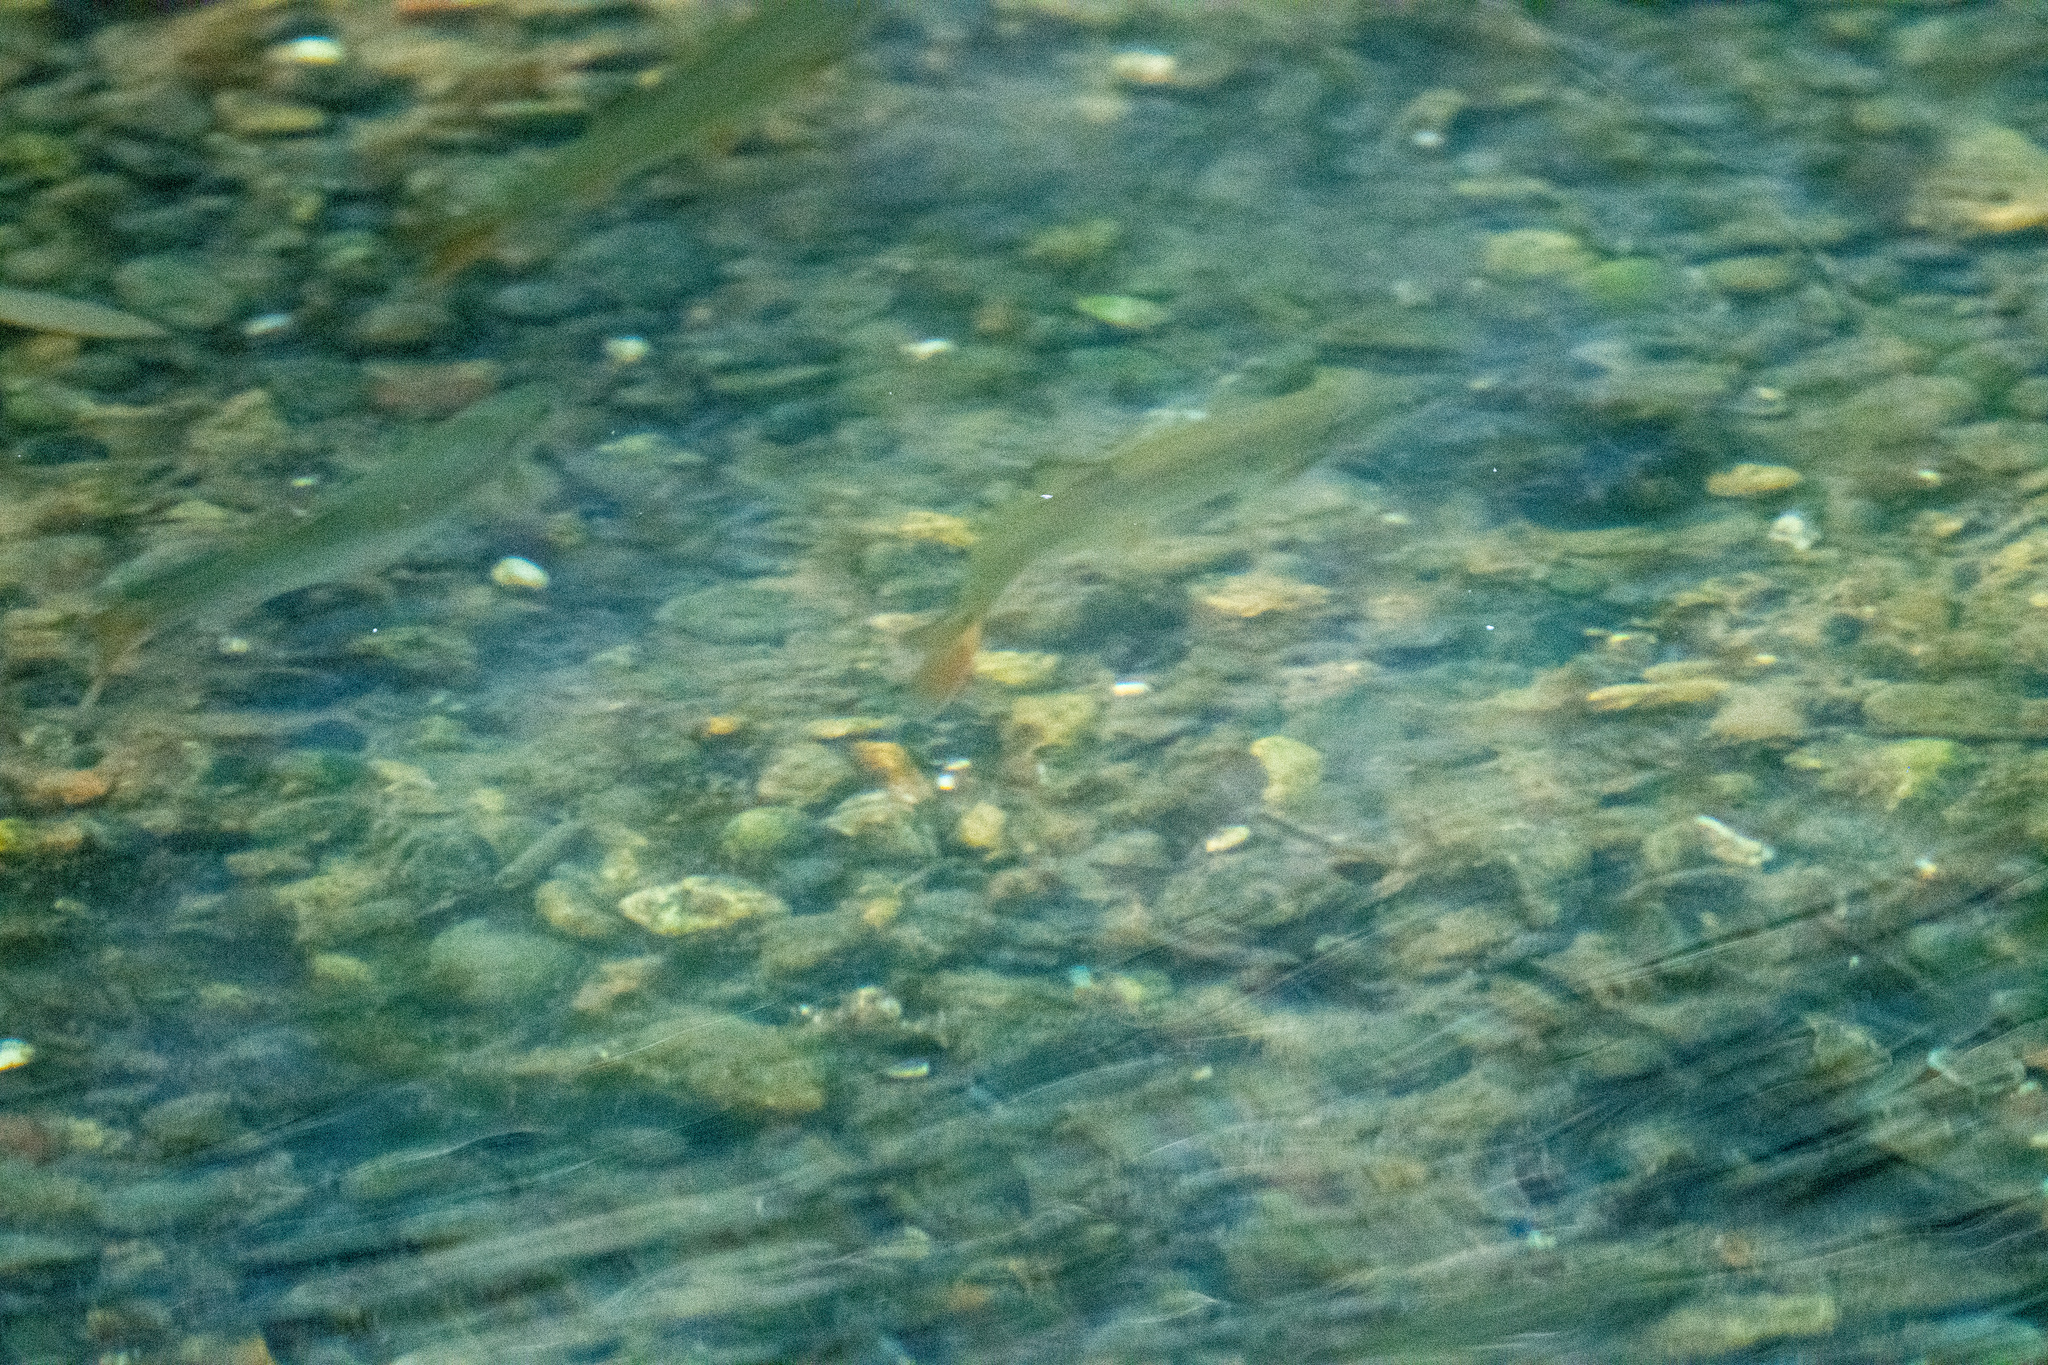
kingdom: Animalia
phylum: Chordata
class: Testudines
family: Emydidae
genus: Actinemys
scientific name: Actinemys marmorata
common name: Western pond turtle
